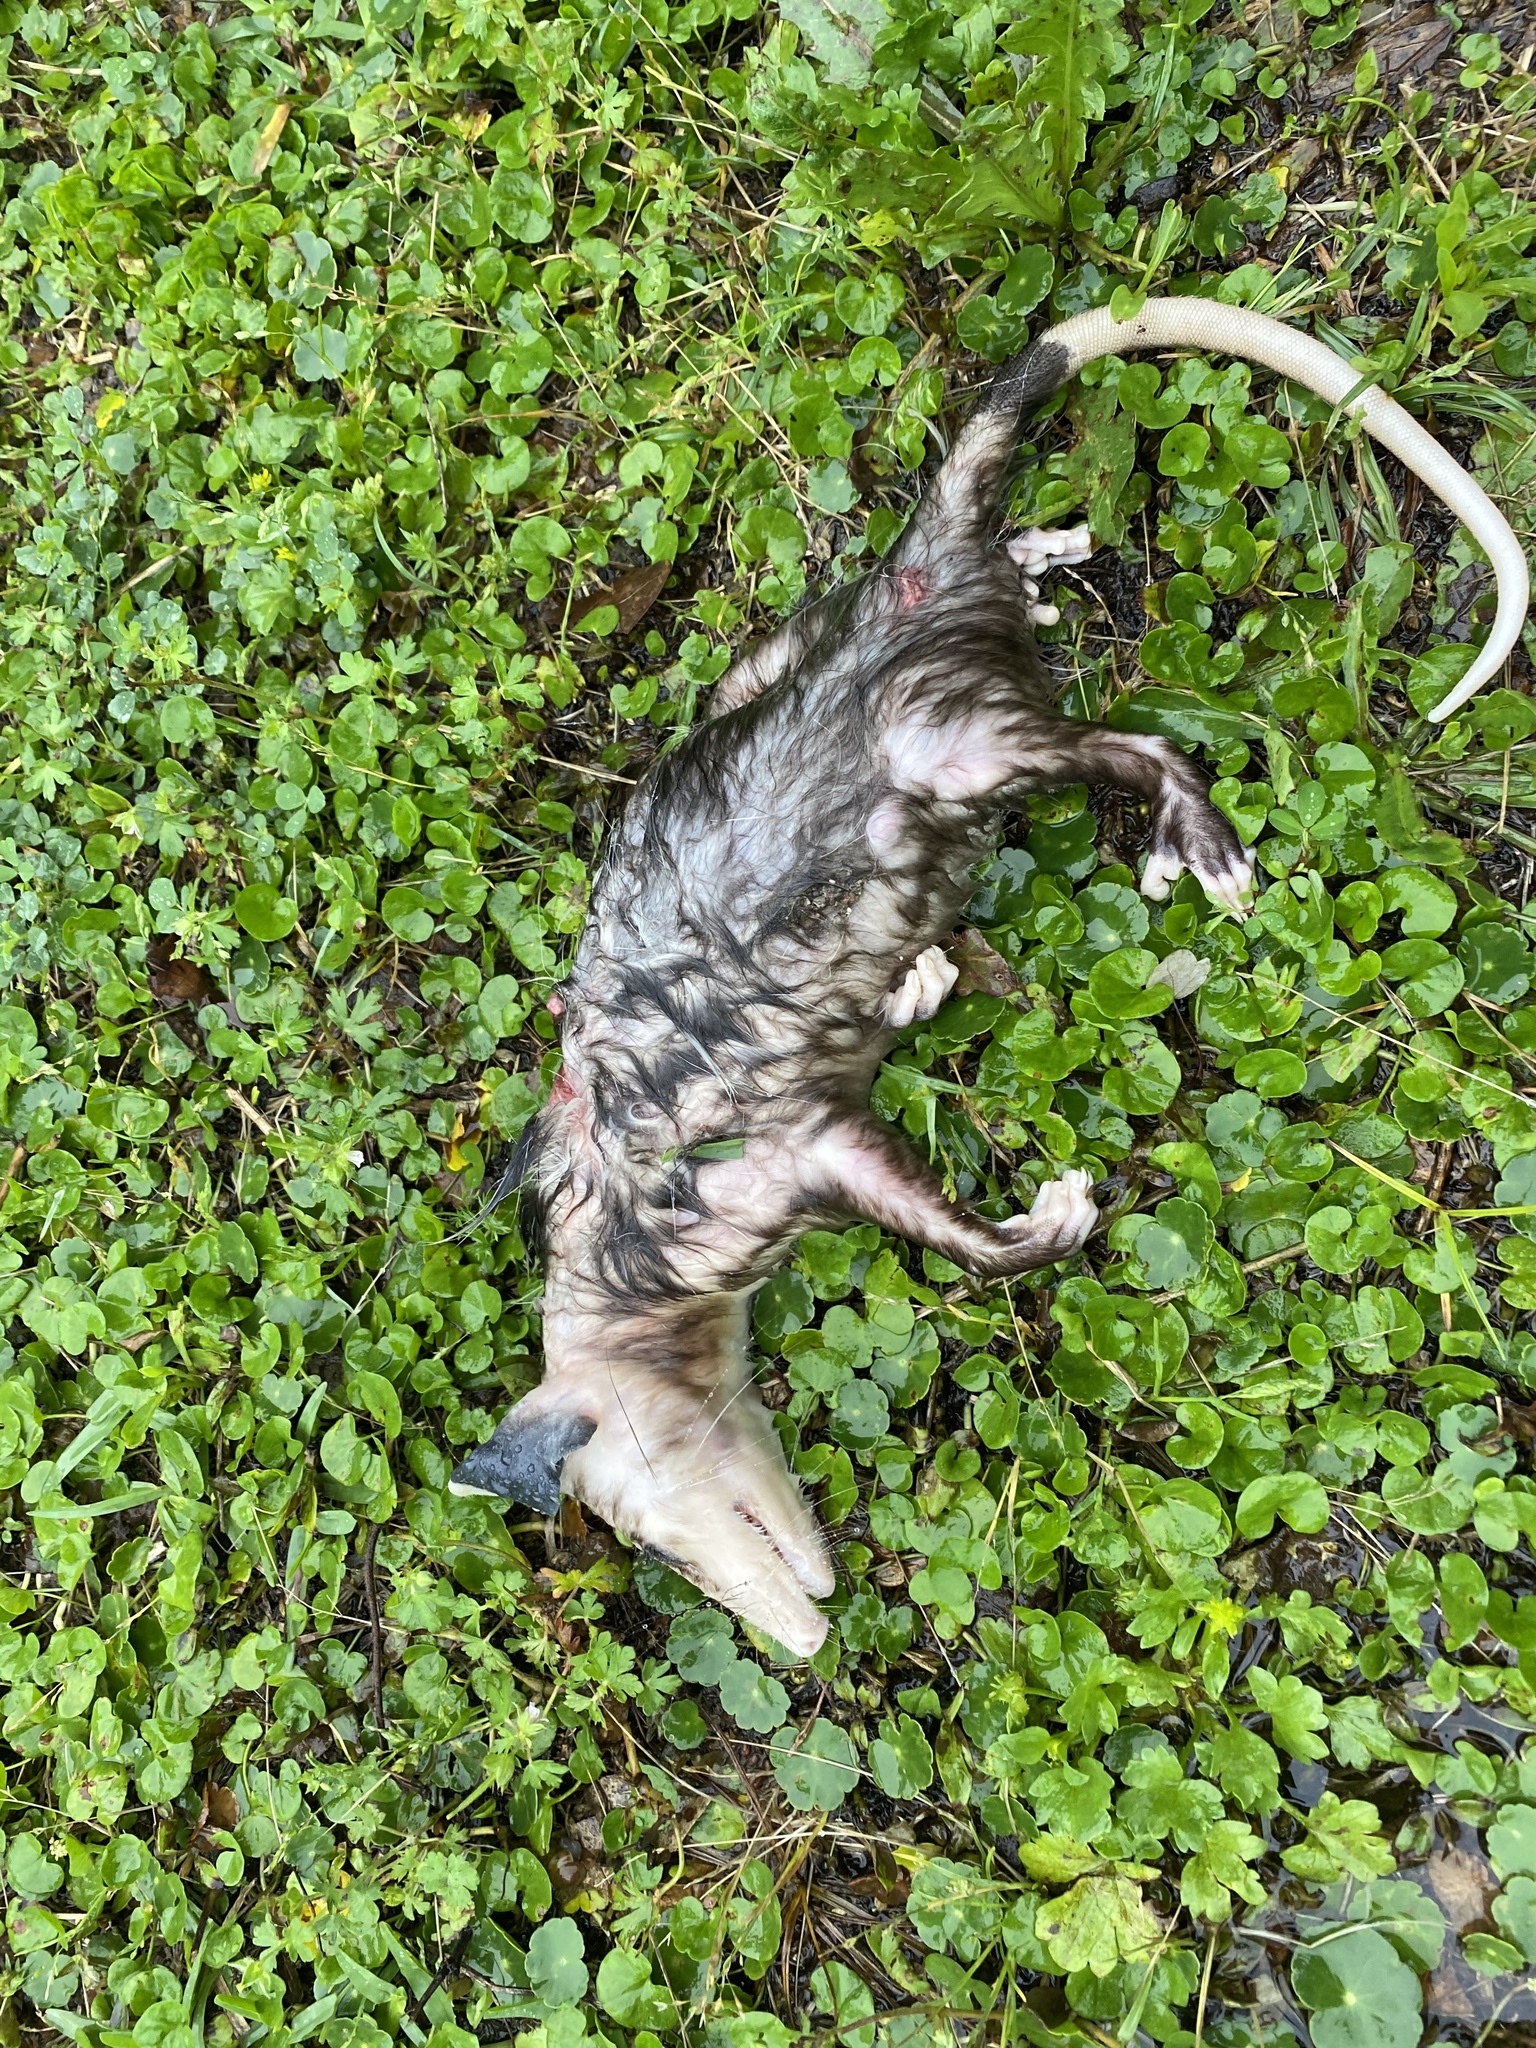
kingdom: Animalia
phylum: Chordata
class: Mammalia
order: Didelphimorphia
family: Didelphidae
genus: Didelphis
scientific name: Didelphis virginiana
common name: Virginia opossum
